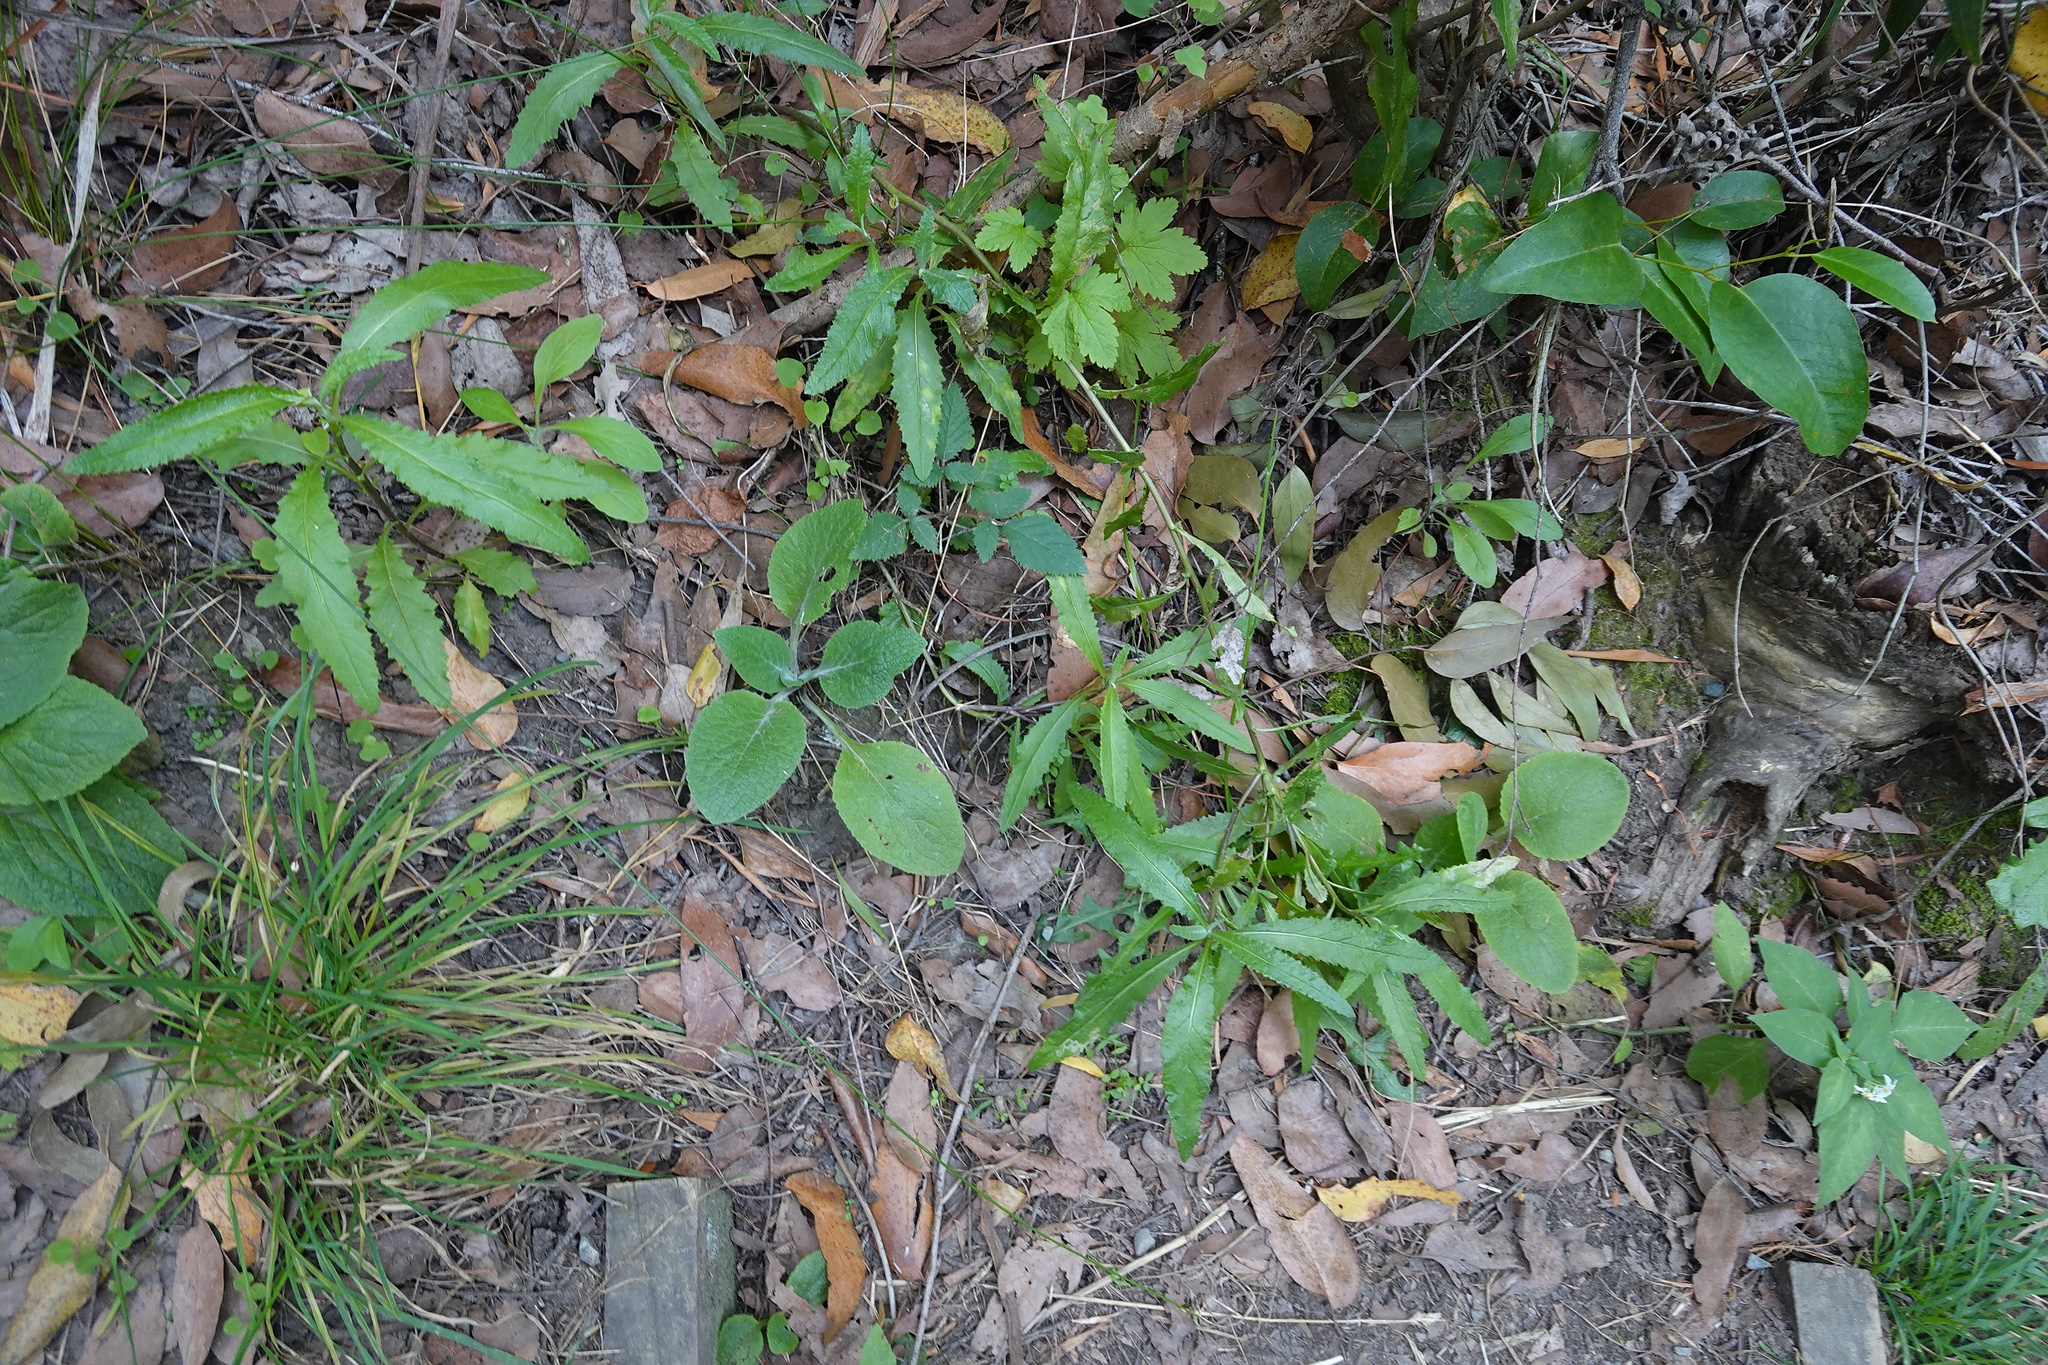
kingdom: Plantae
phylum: Tracheophyta
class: Magnoliopsida
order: Asterales
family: Asteraceae
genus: Senecio
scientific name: Senecio minimus
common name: Toothed fireweed
